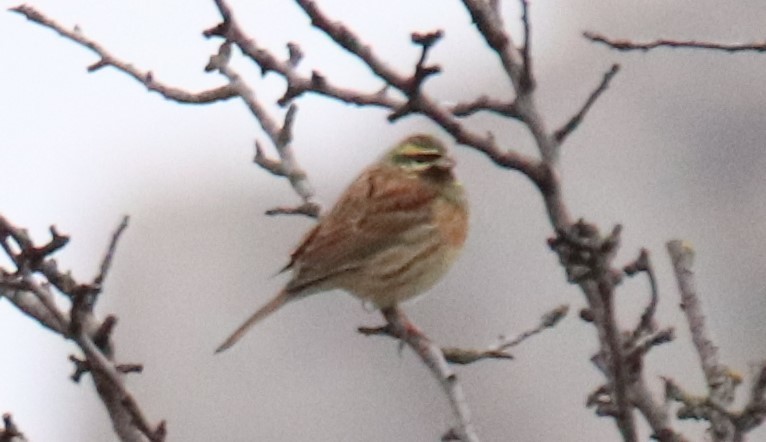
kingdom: Animalia
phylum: Chordata
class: Aves
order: Passeriformes
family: Emberizidae
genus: Emberiza
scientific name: Emberiza cirlus
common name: Cirl bunting
